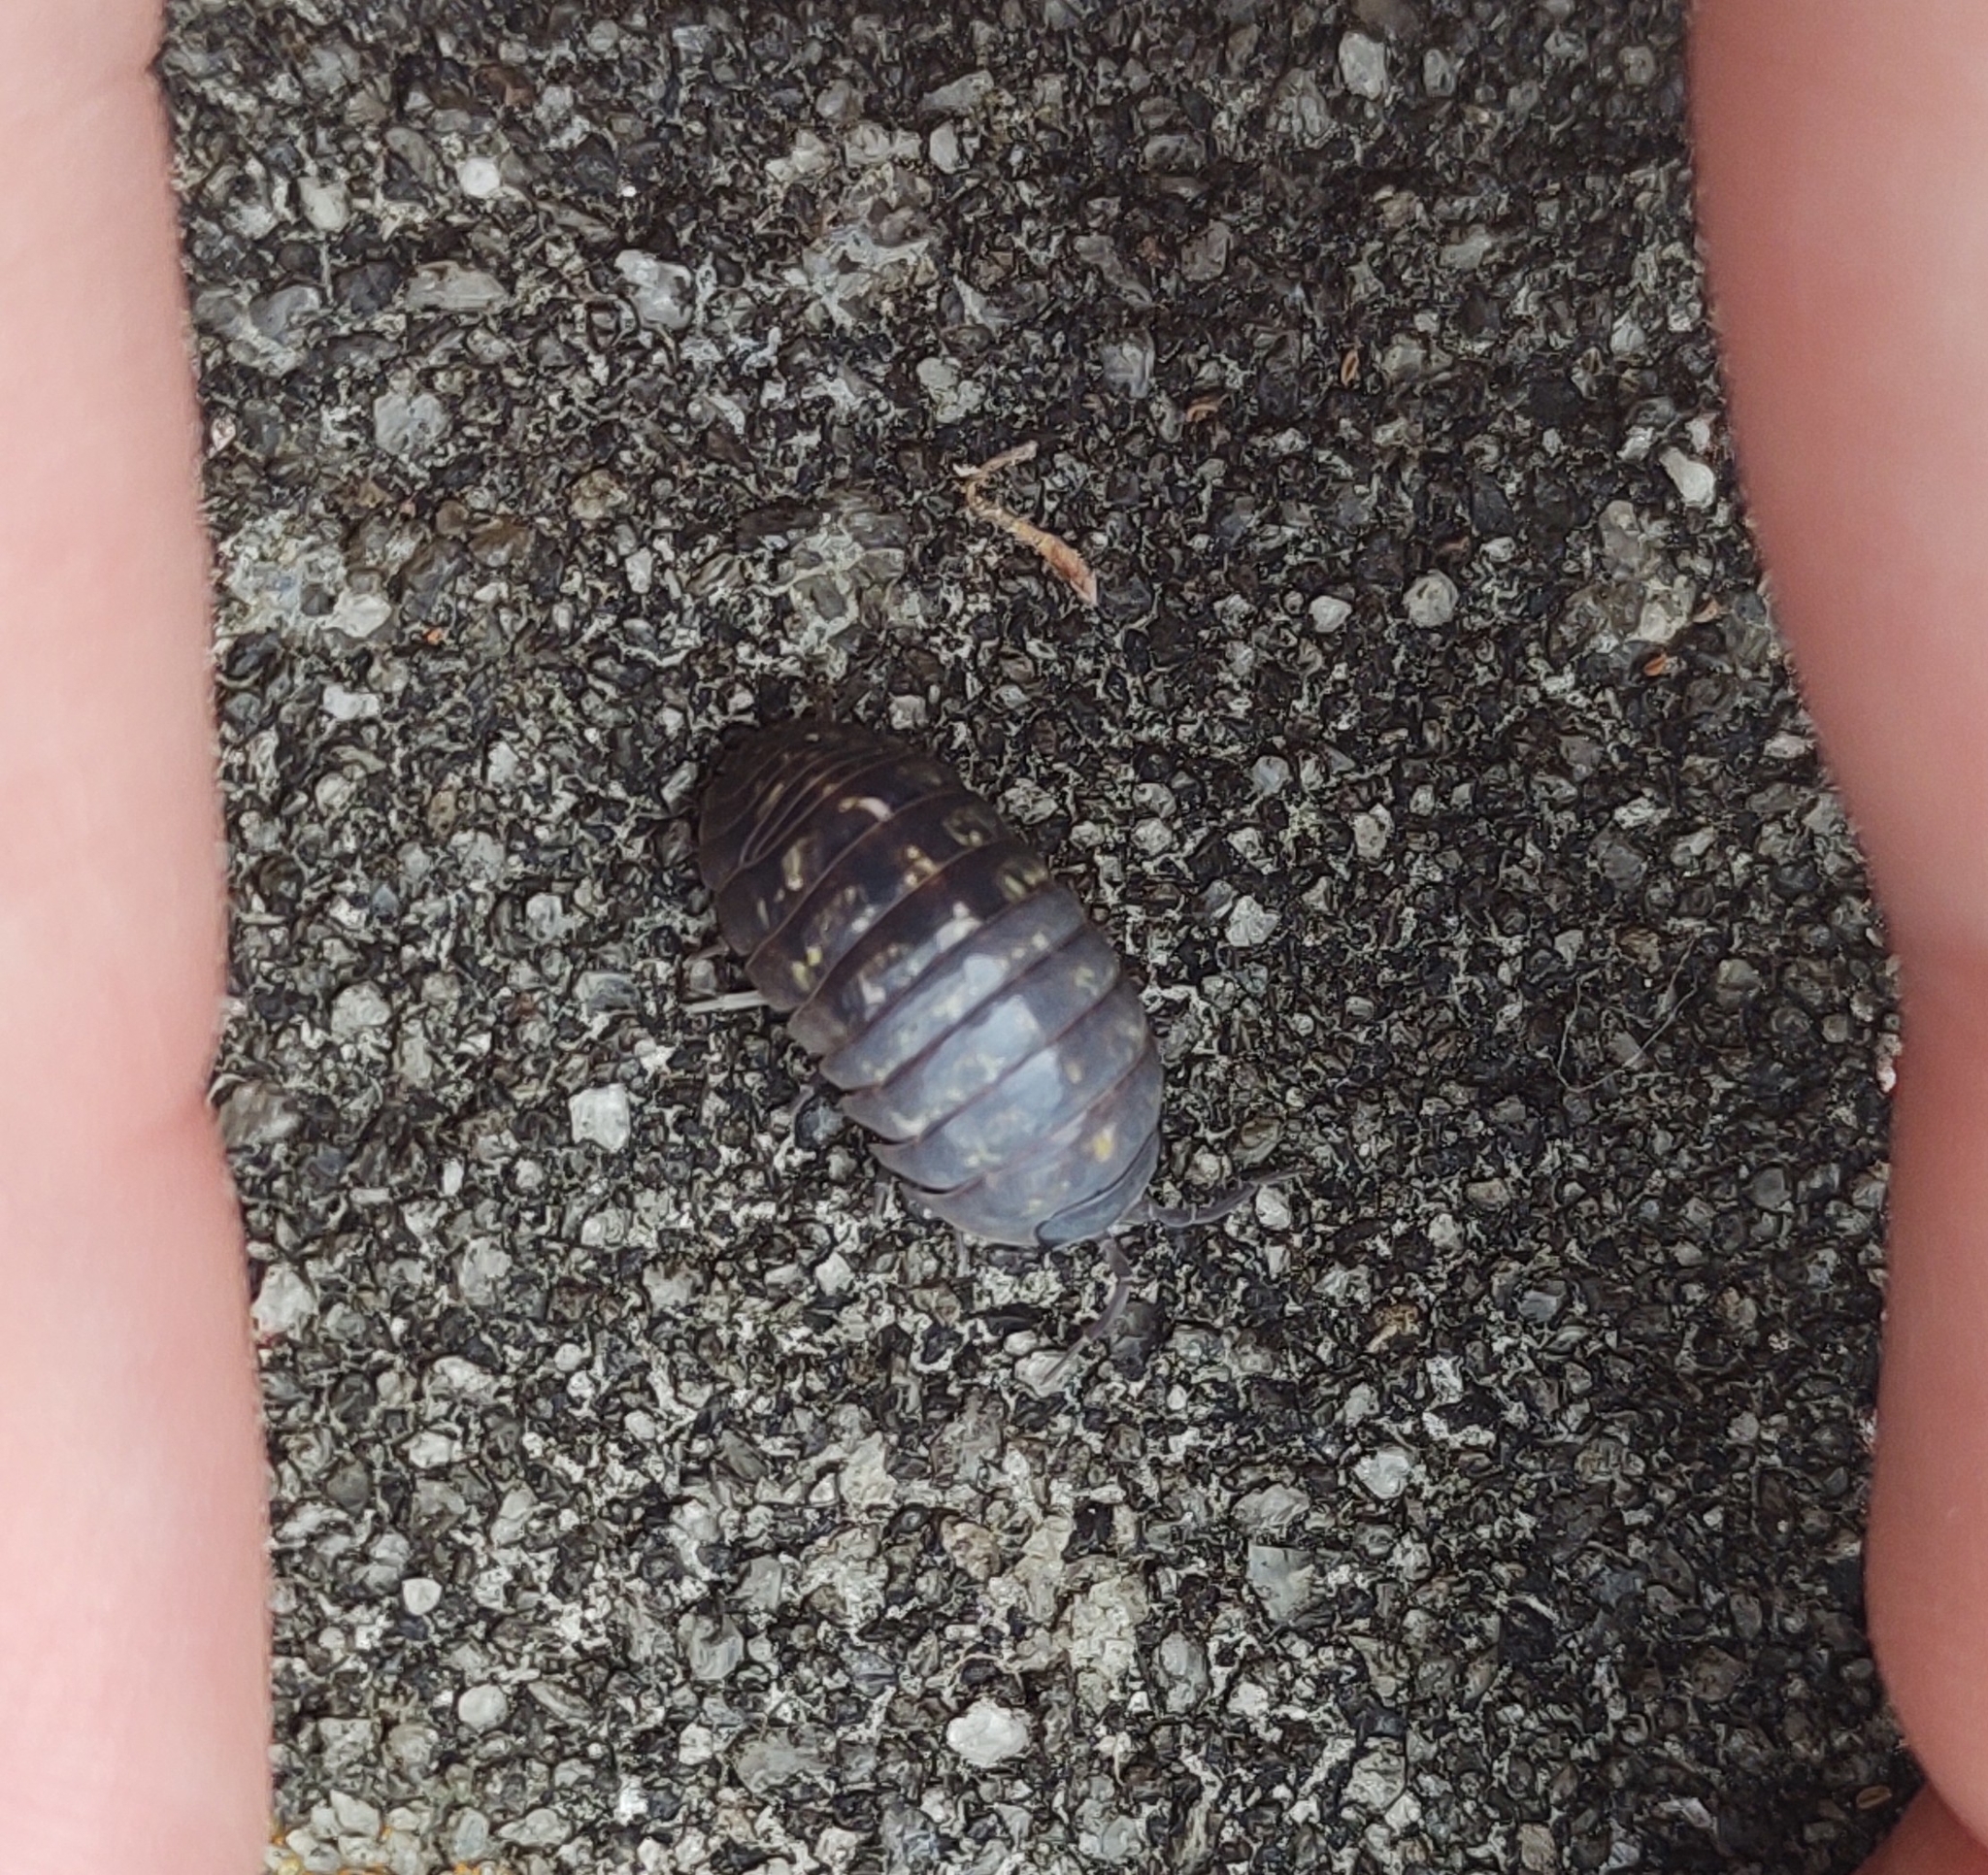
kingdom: Animalia
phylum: Arthropoda
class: Malacostraca
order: Isopoda
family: Armadillidiidae
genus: Armadillidium
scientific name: Armadillidium vulgare
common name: Common pill woodlouse
